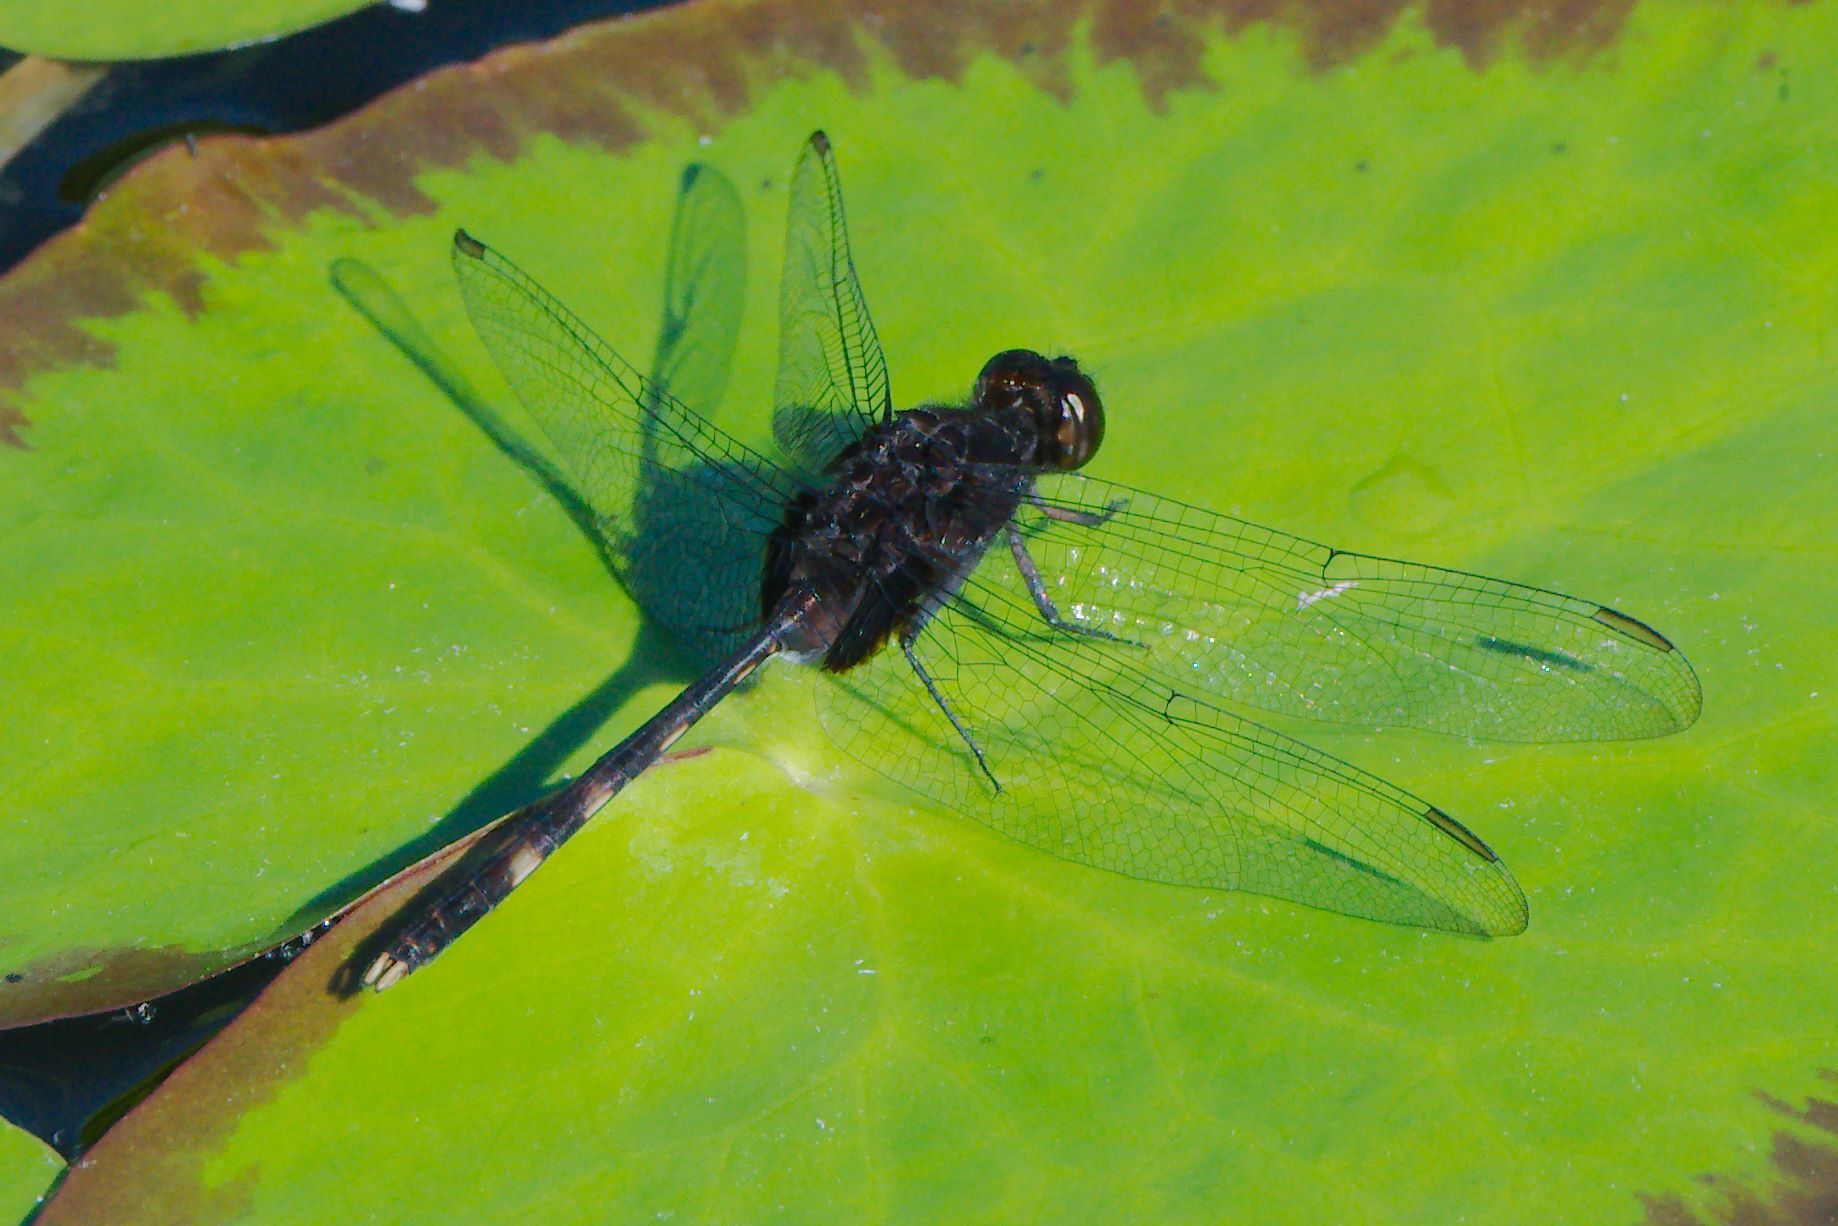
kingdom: Animalia
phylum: Arthropoda
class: Insecta
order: Odonata
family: Libellulidae
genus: Erythemis
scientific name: Erythemis plebeja
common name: Pin-tailed pondhawk
